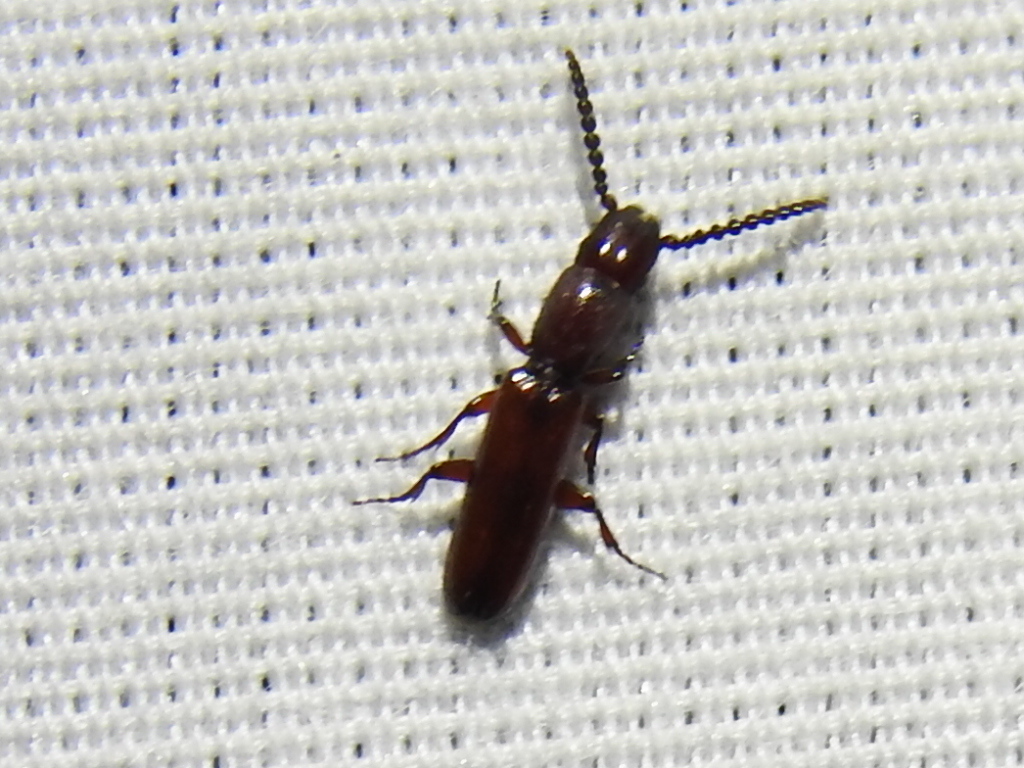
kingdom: Animalia
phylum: Arthropoda
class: Insecta
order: Coleoptera
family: Passandridae
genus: Taphroscelidia
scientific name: Taphroscelidia linearis
